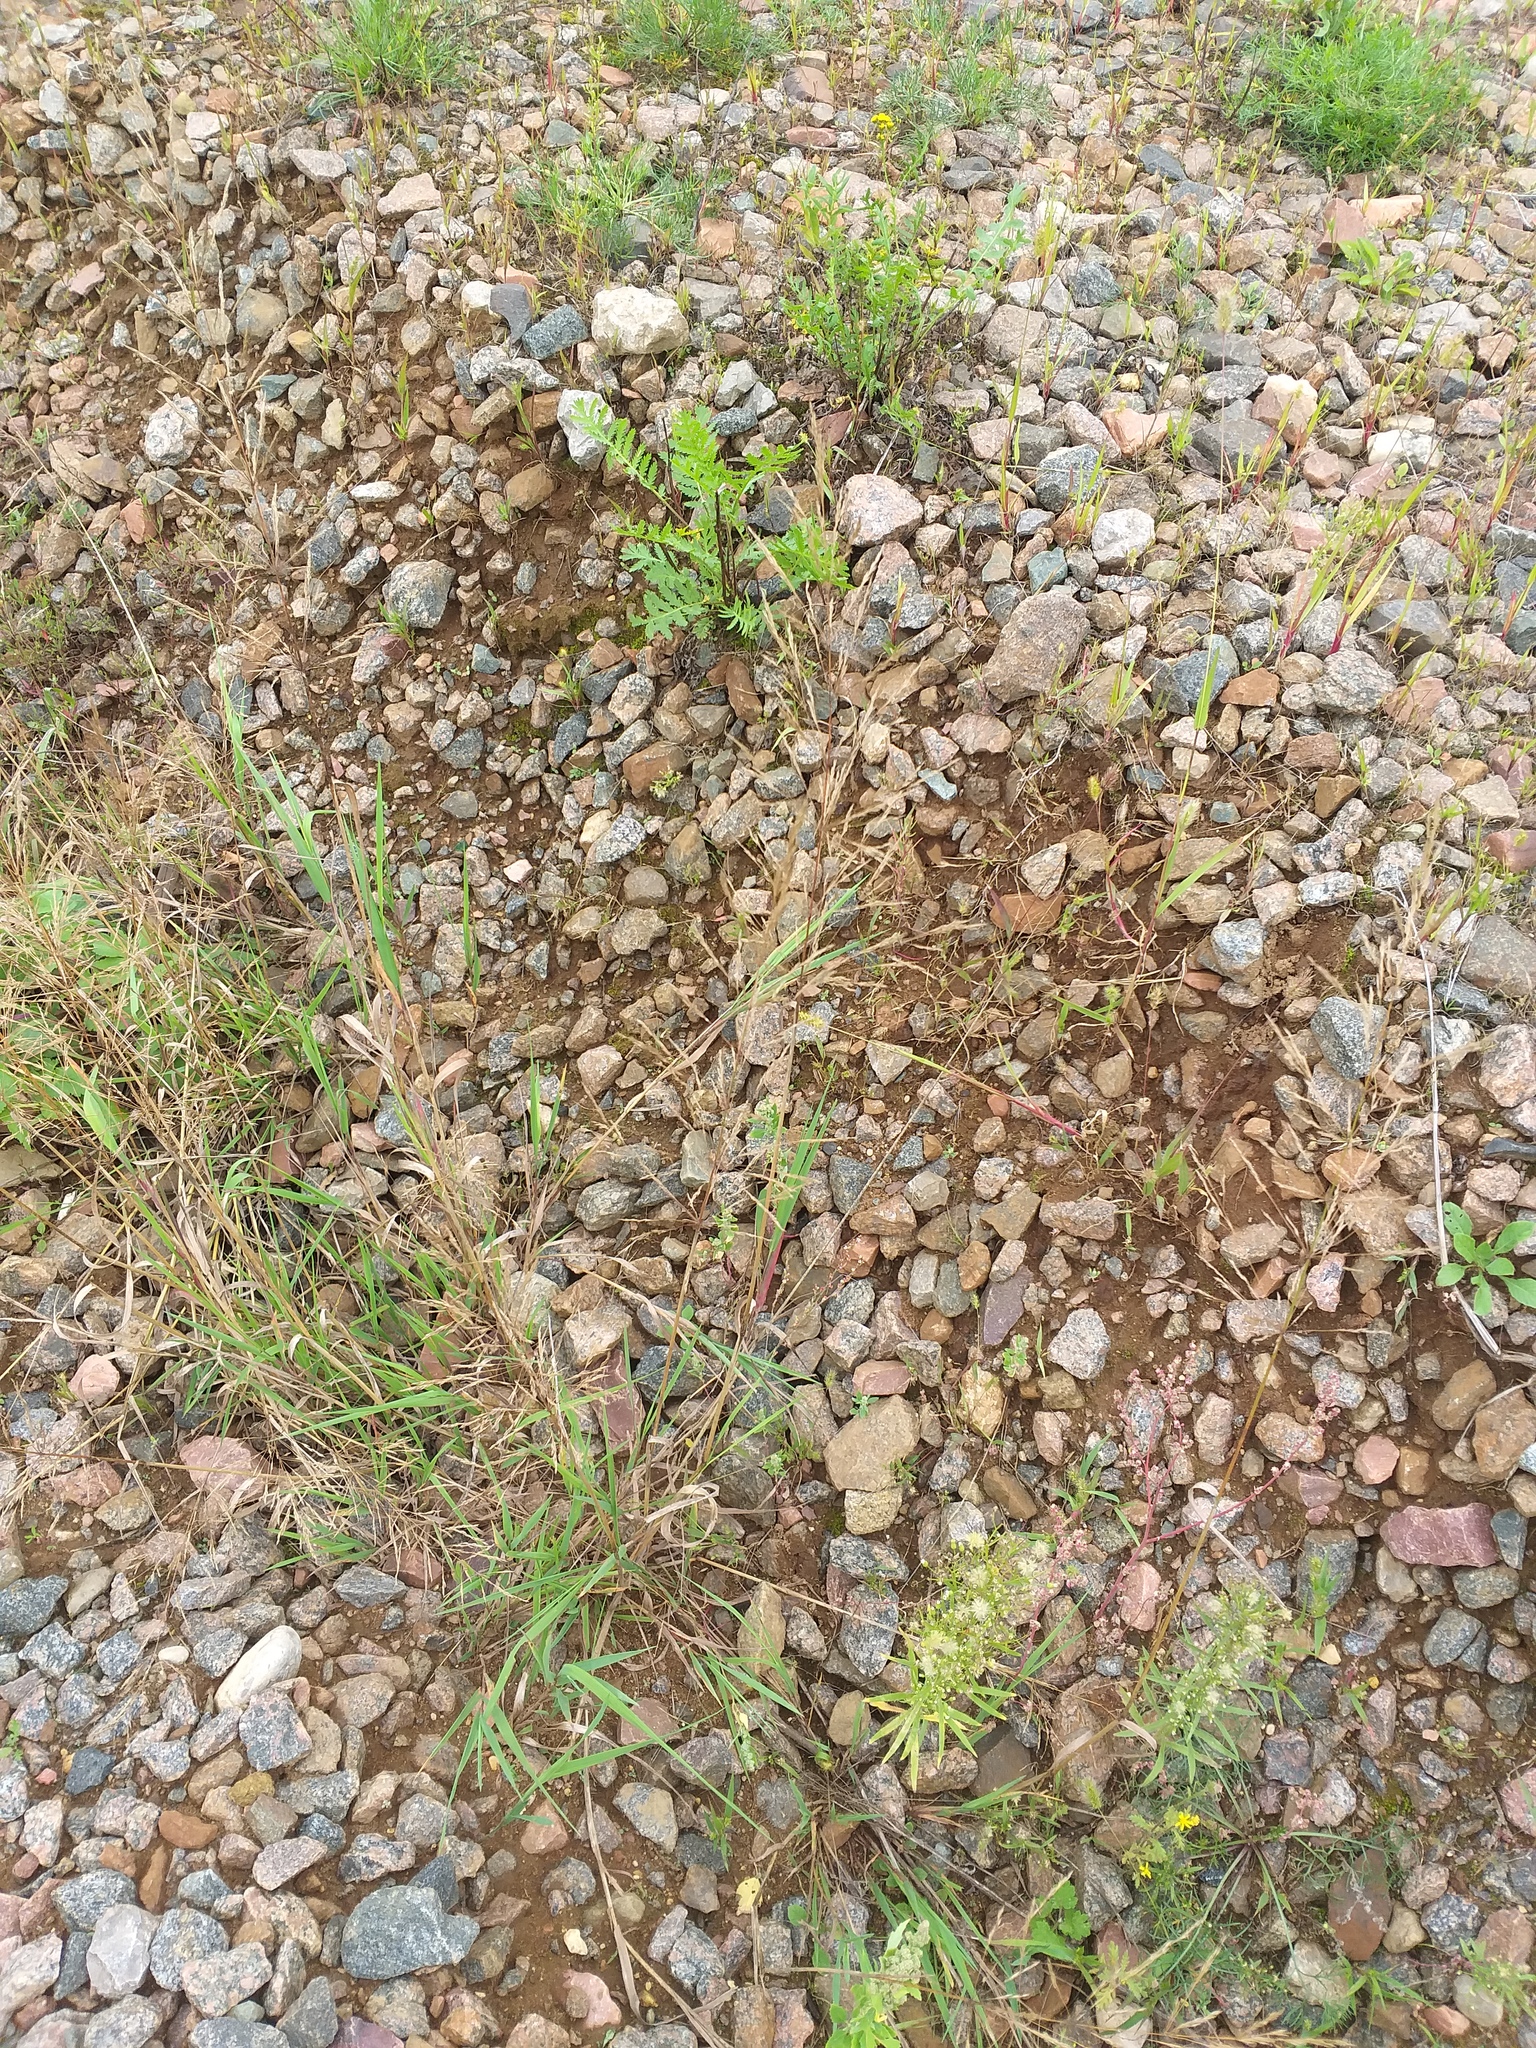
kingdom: Plantae
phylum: Tracheophyta
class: Liliopsida
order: Poales
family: Poaceae
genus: Agrostis
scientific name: Agrostis gigantea
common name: Black bent
